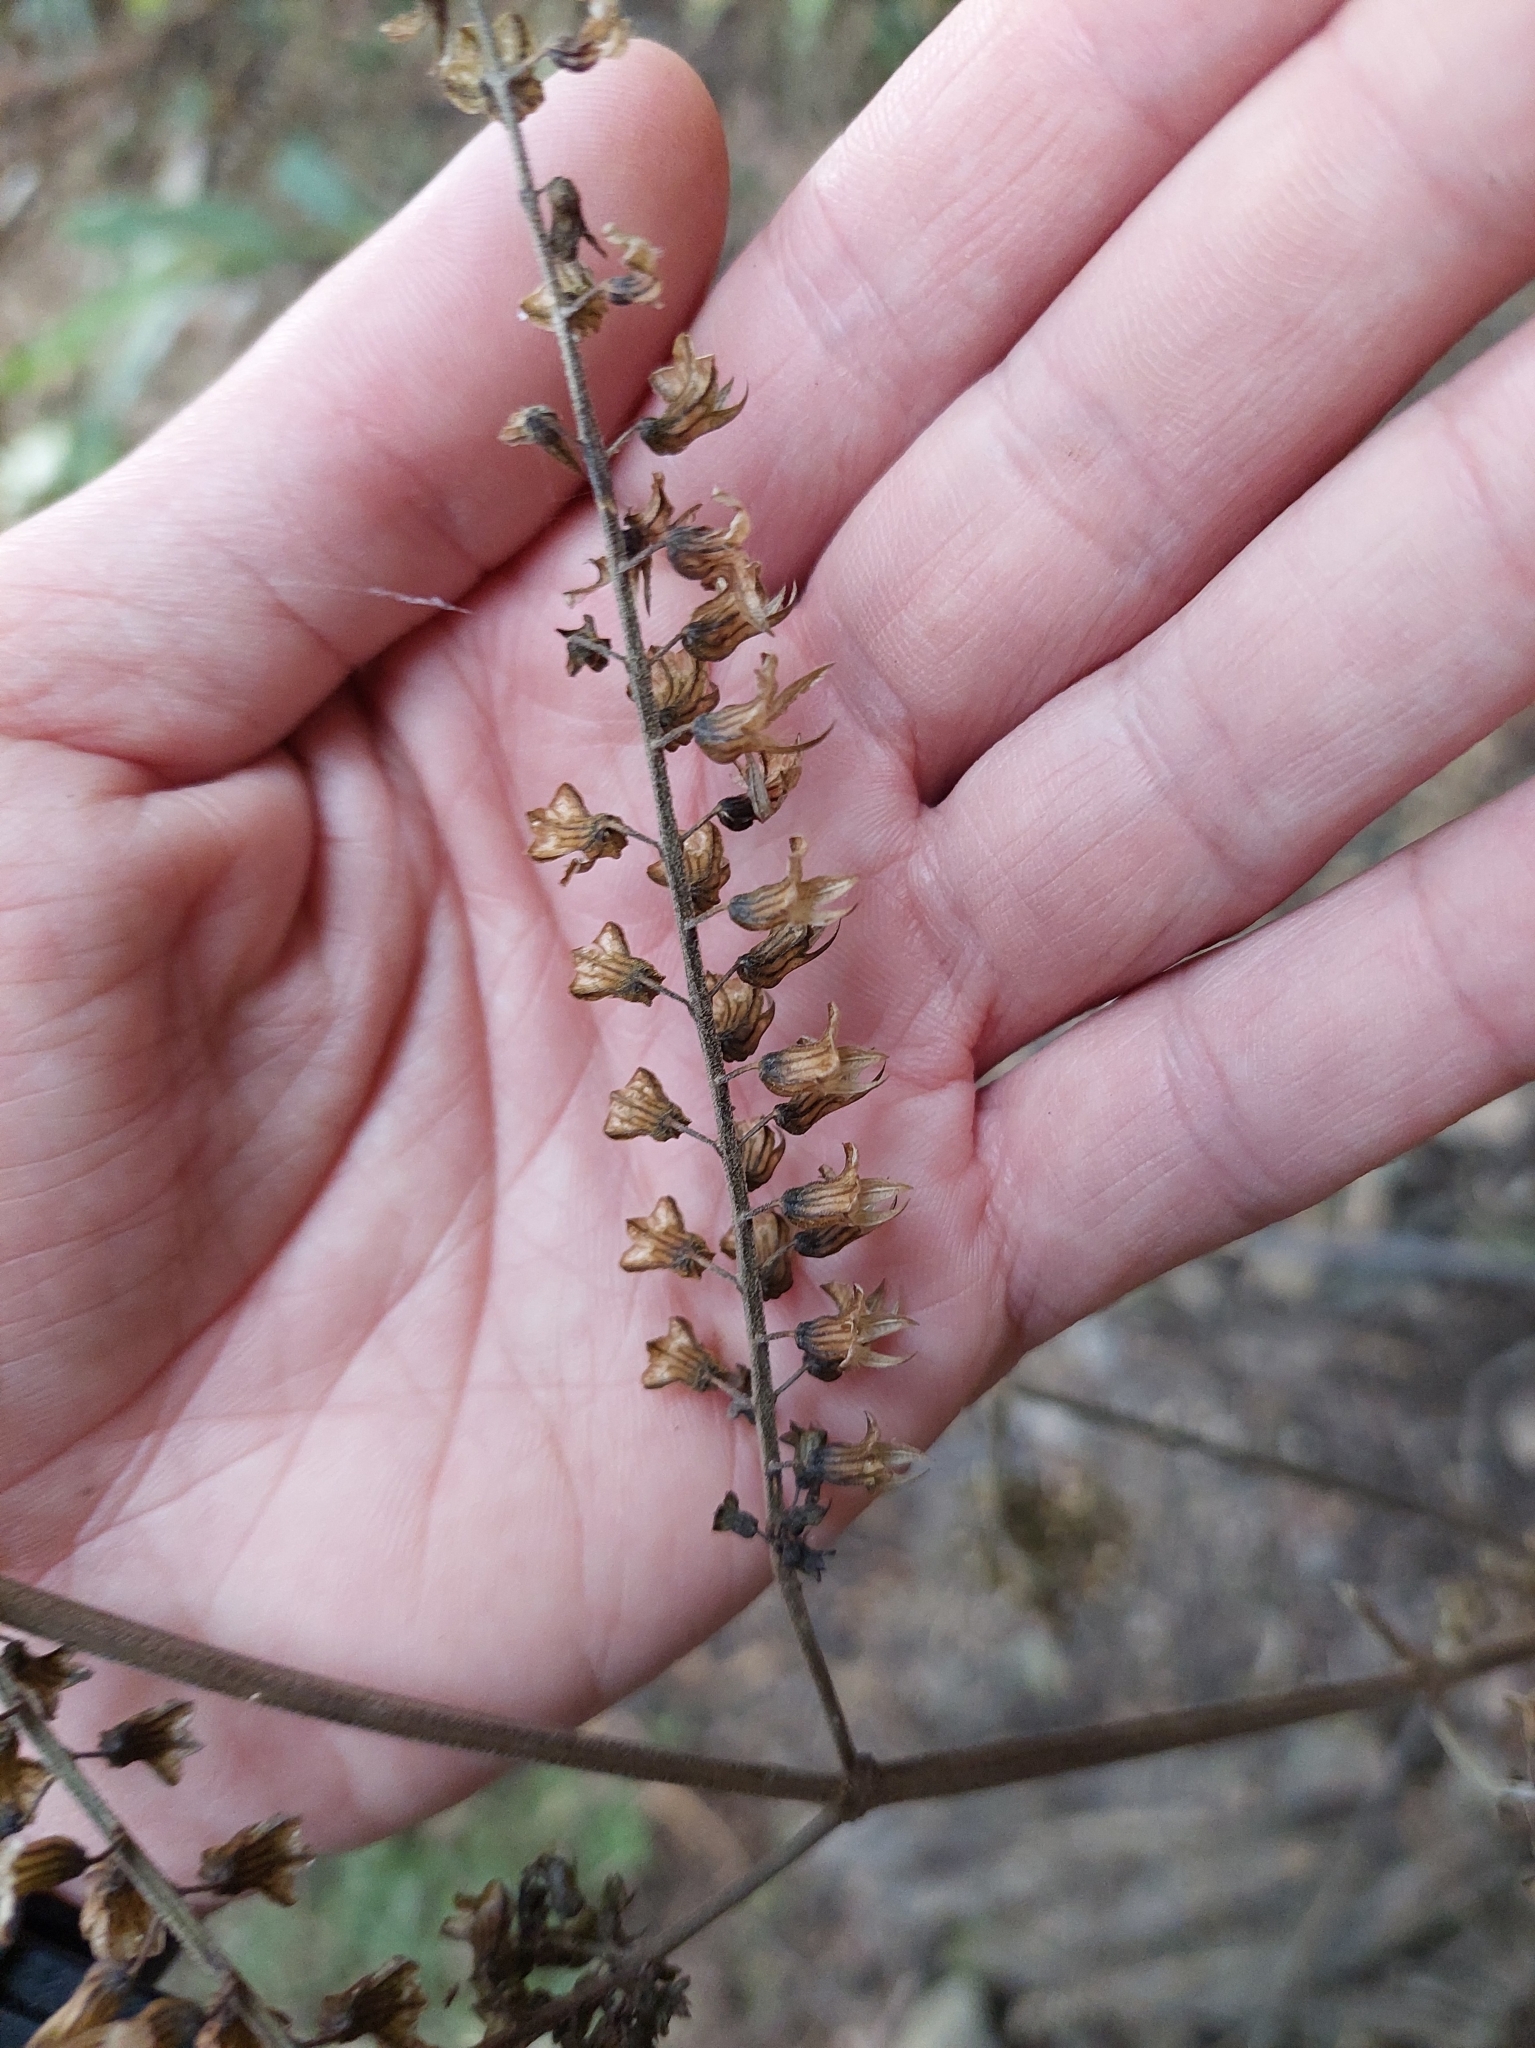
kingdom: Plantae
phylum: Tracheophyta
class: Magnoliopsida
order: Lamiales
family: Lamiaceae
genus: Perilla
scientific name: Perilla frutescens
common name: Perilla
